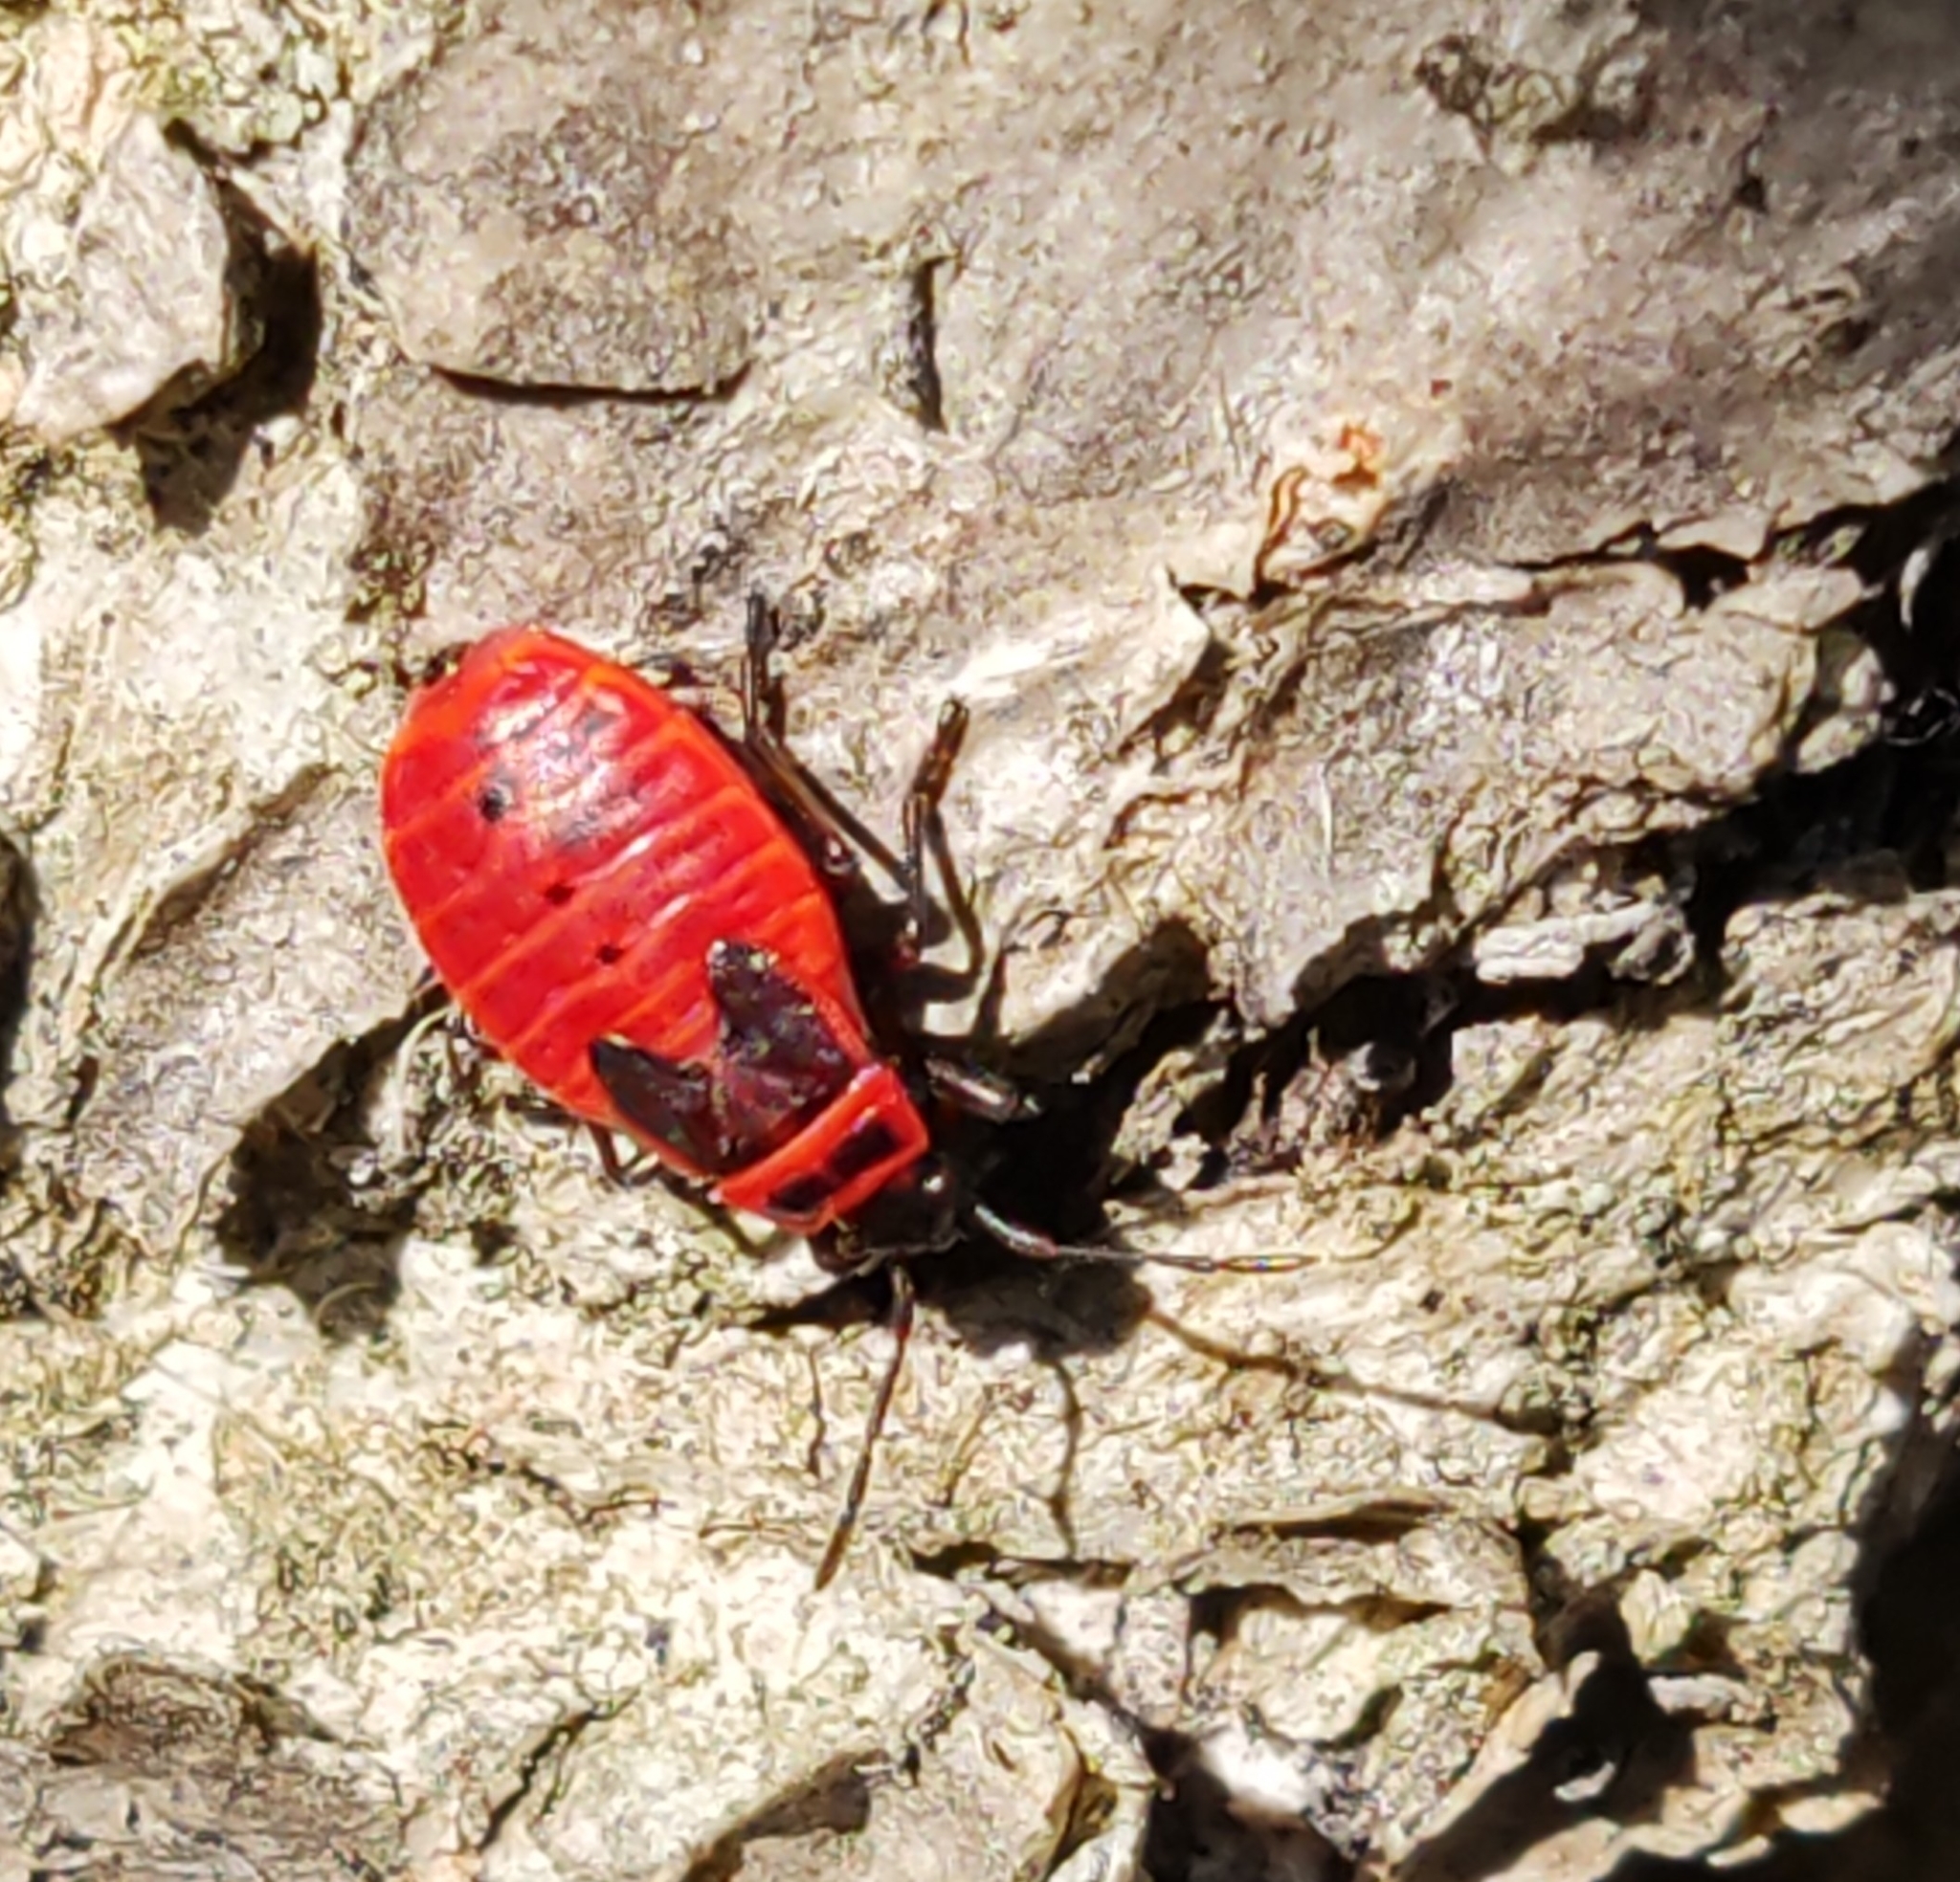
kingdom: Animalia
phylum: Arthropoda
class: Insecta
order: Hemiptera
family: Pyrrhocoridae
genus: Pyrrhocoris
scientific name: Pyrrhocoris apterus
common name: Firebug
